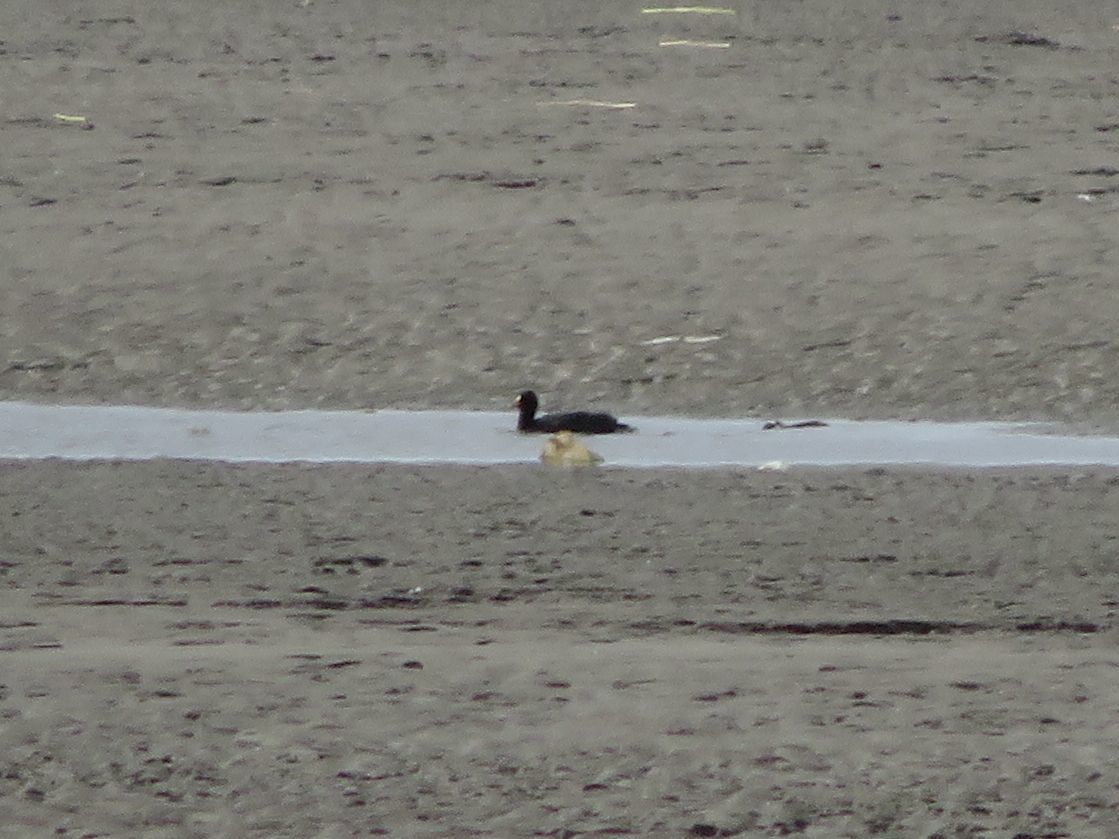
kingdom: Animalia
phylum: Chordata
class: Aves
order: Gruiformes
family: Rallidae
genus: Fulica
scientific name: Fulica armillata
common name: Red-gartered coot
